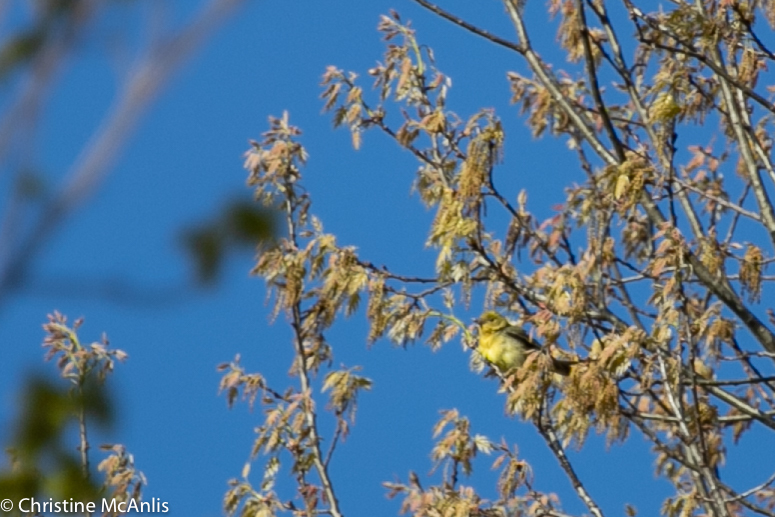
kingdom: Animalia
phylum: Chordata
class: Aves
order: Passeriformes
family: Cardinalidae
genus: Piranga
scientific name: Piranga olivacea
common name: Scarlet tanager
